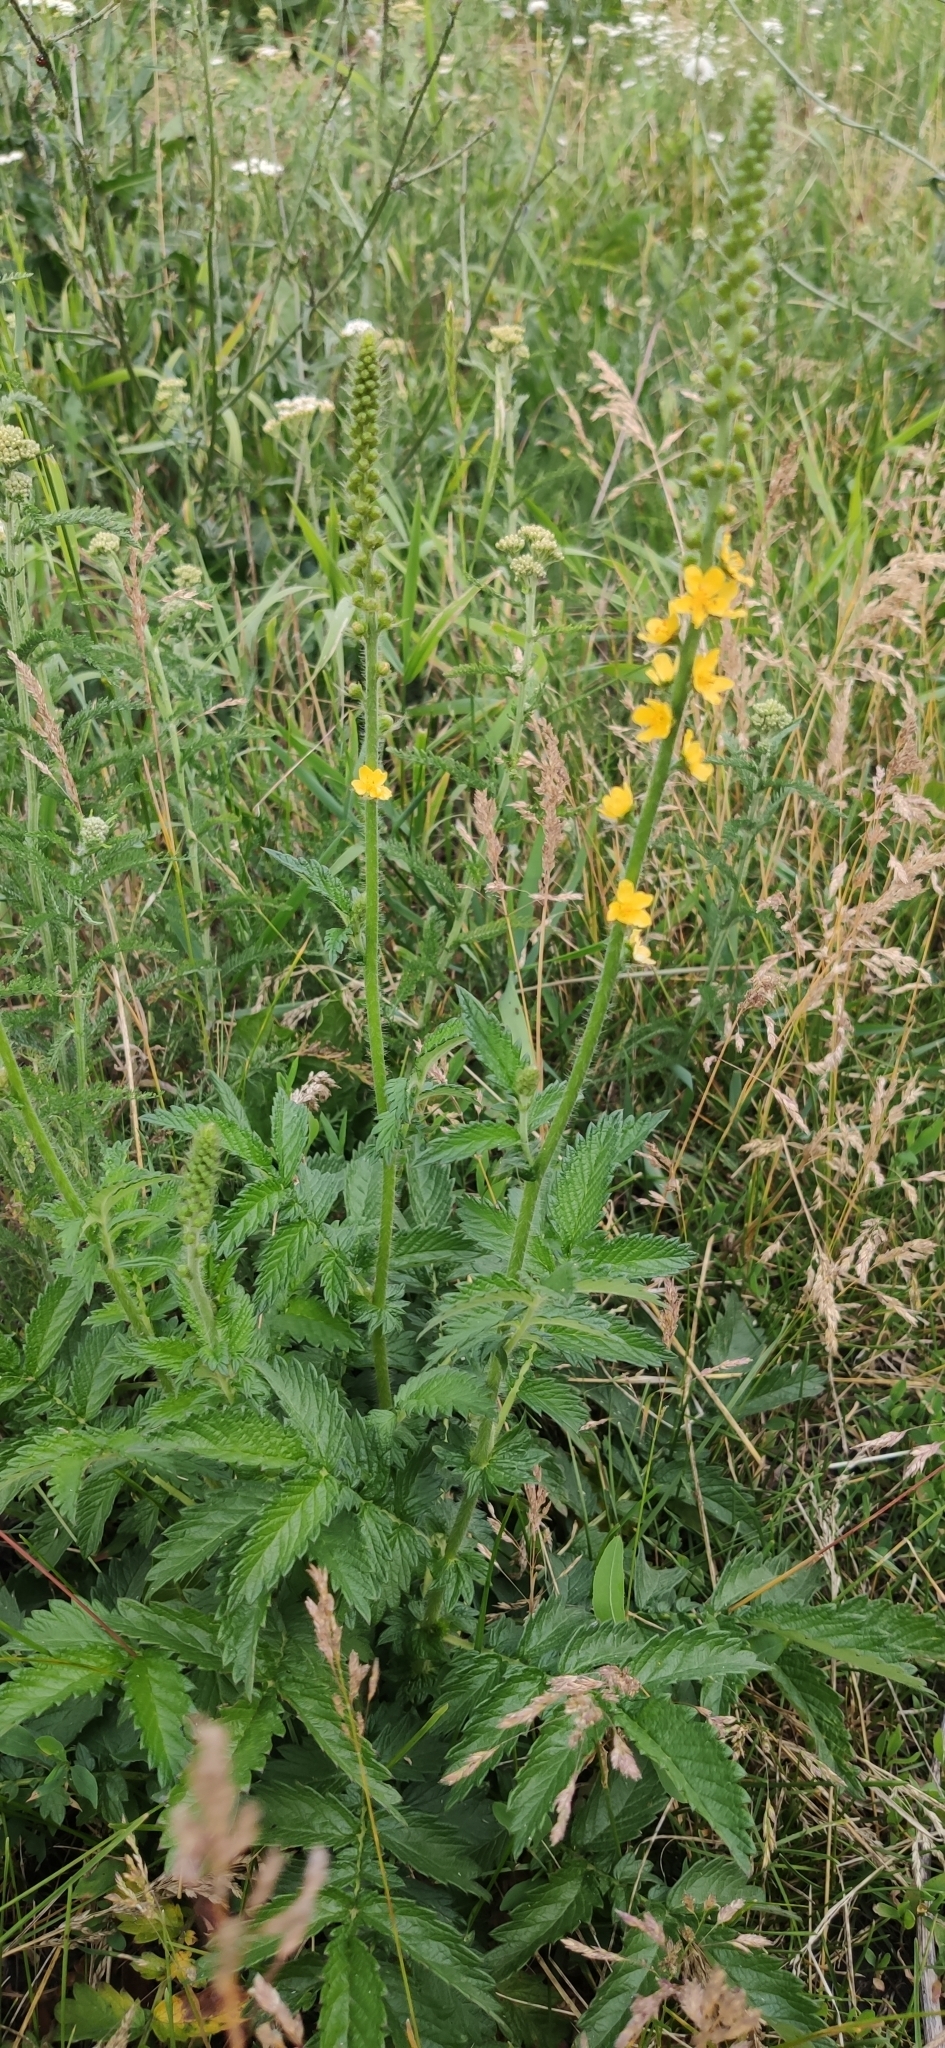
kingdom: Plantae
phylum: Tracheophyta
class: Magnoliopsida
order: Rosales
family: Rosaceae
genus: Agrimonia
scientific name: Agrimonia eupatoria
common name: Agrimony
